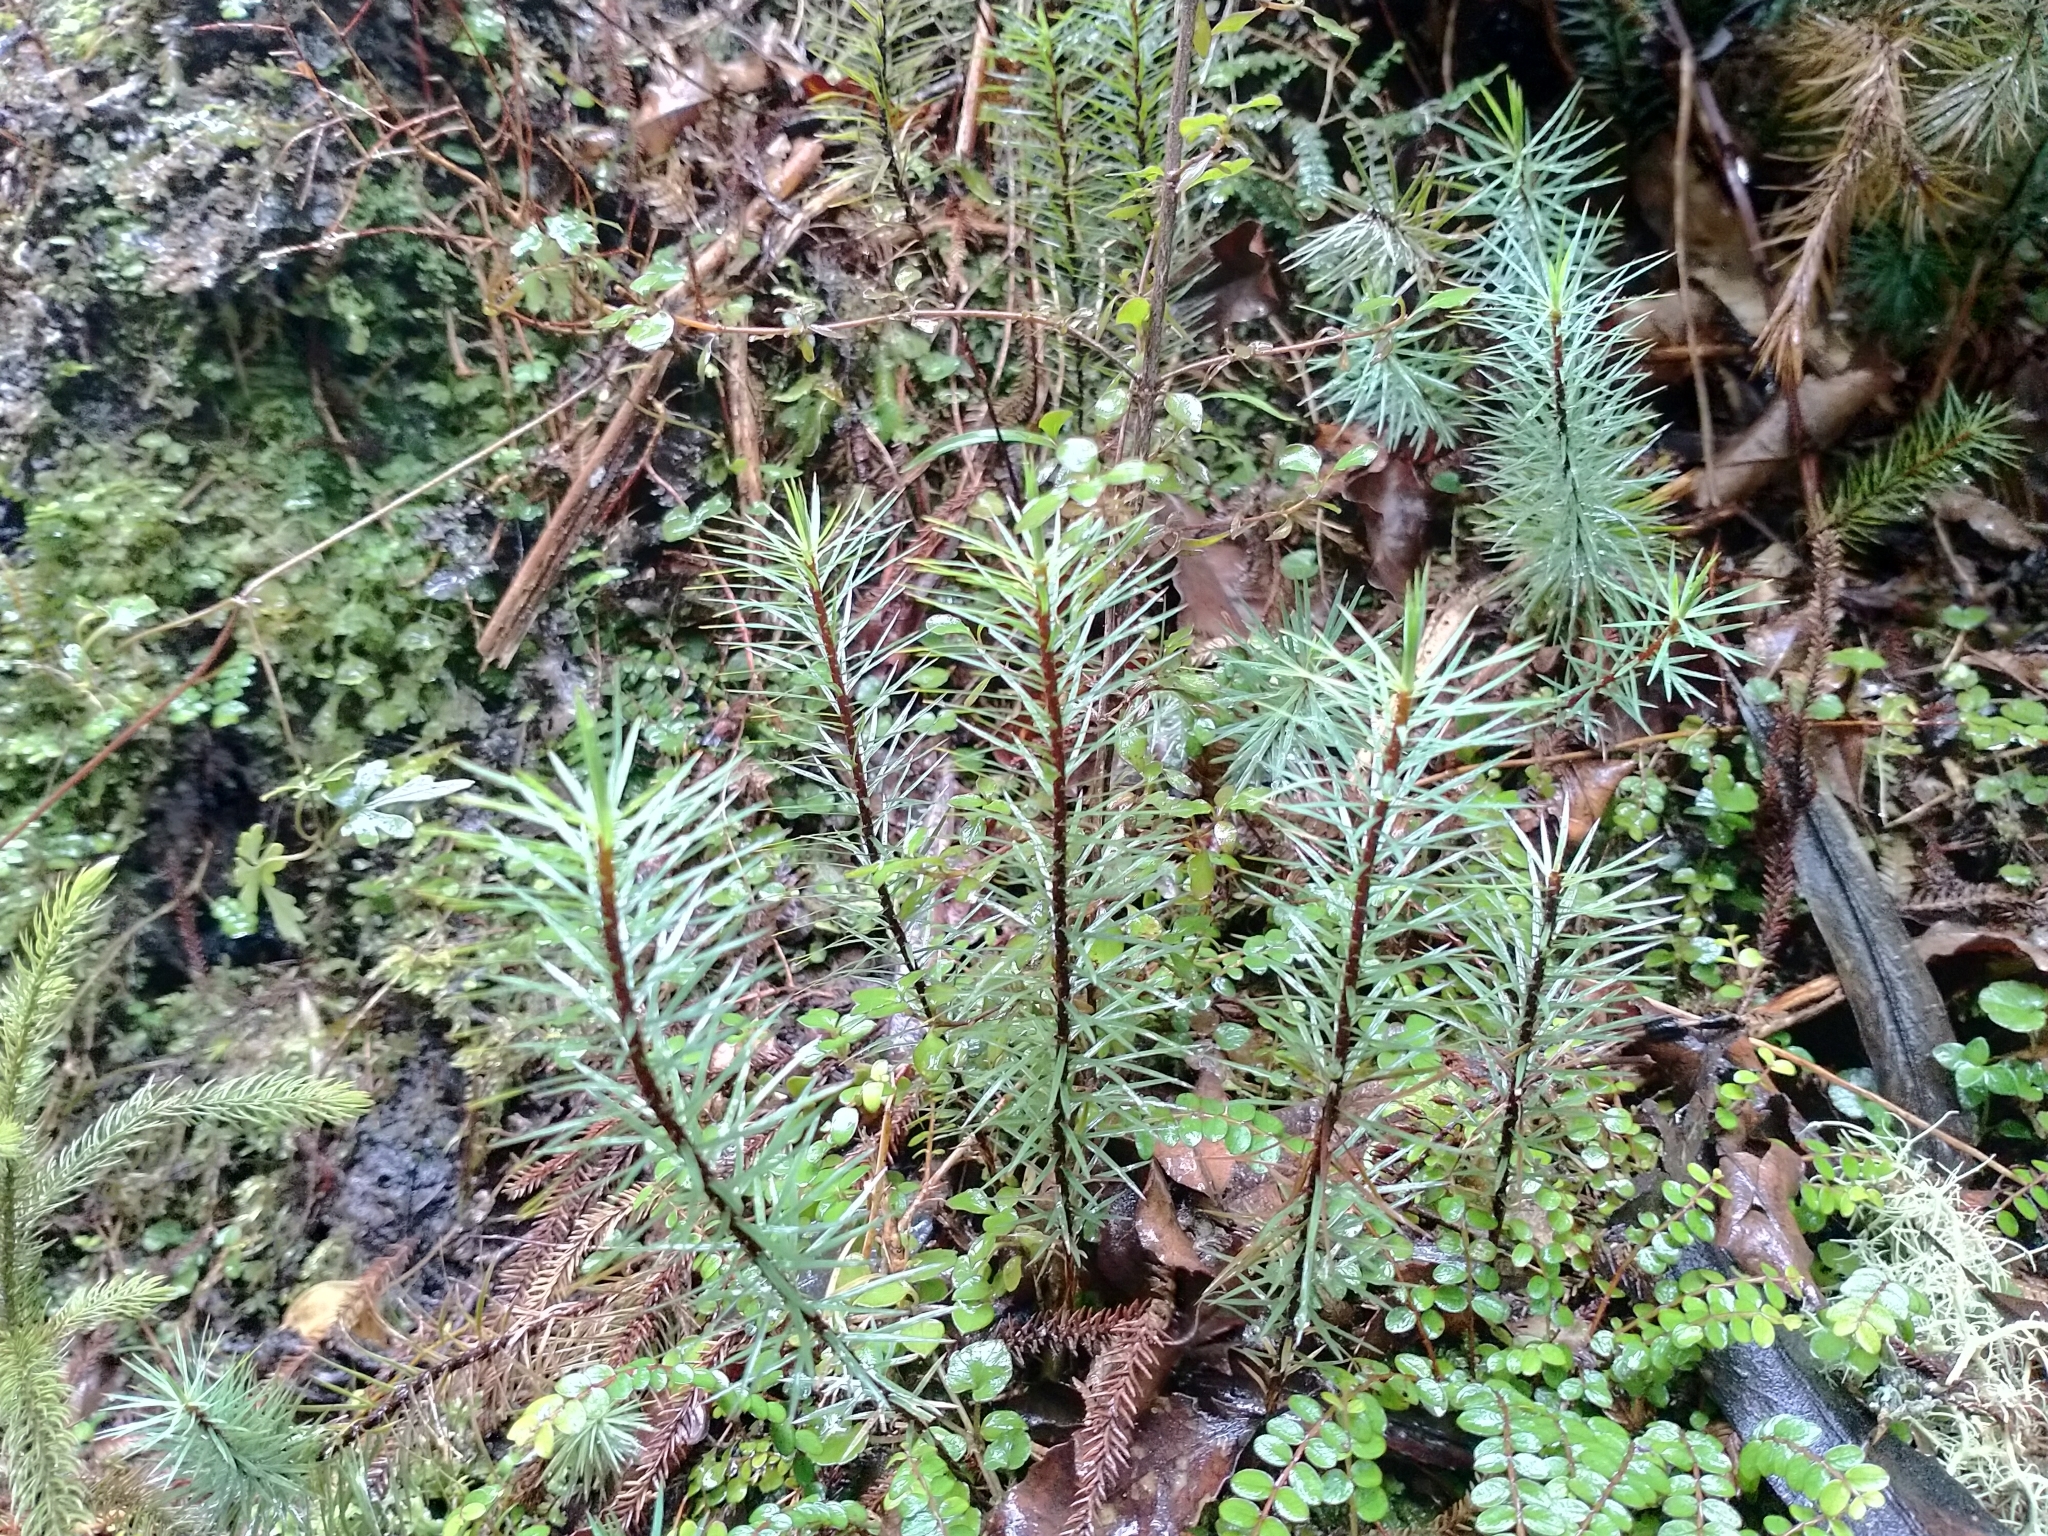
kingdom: Plantae
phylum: Bryophyta
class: Polytrichopsida
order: Polytrichales
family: Polytrichaceae
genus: Dawsonia
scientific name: Dawsonia superba
